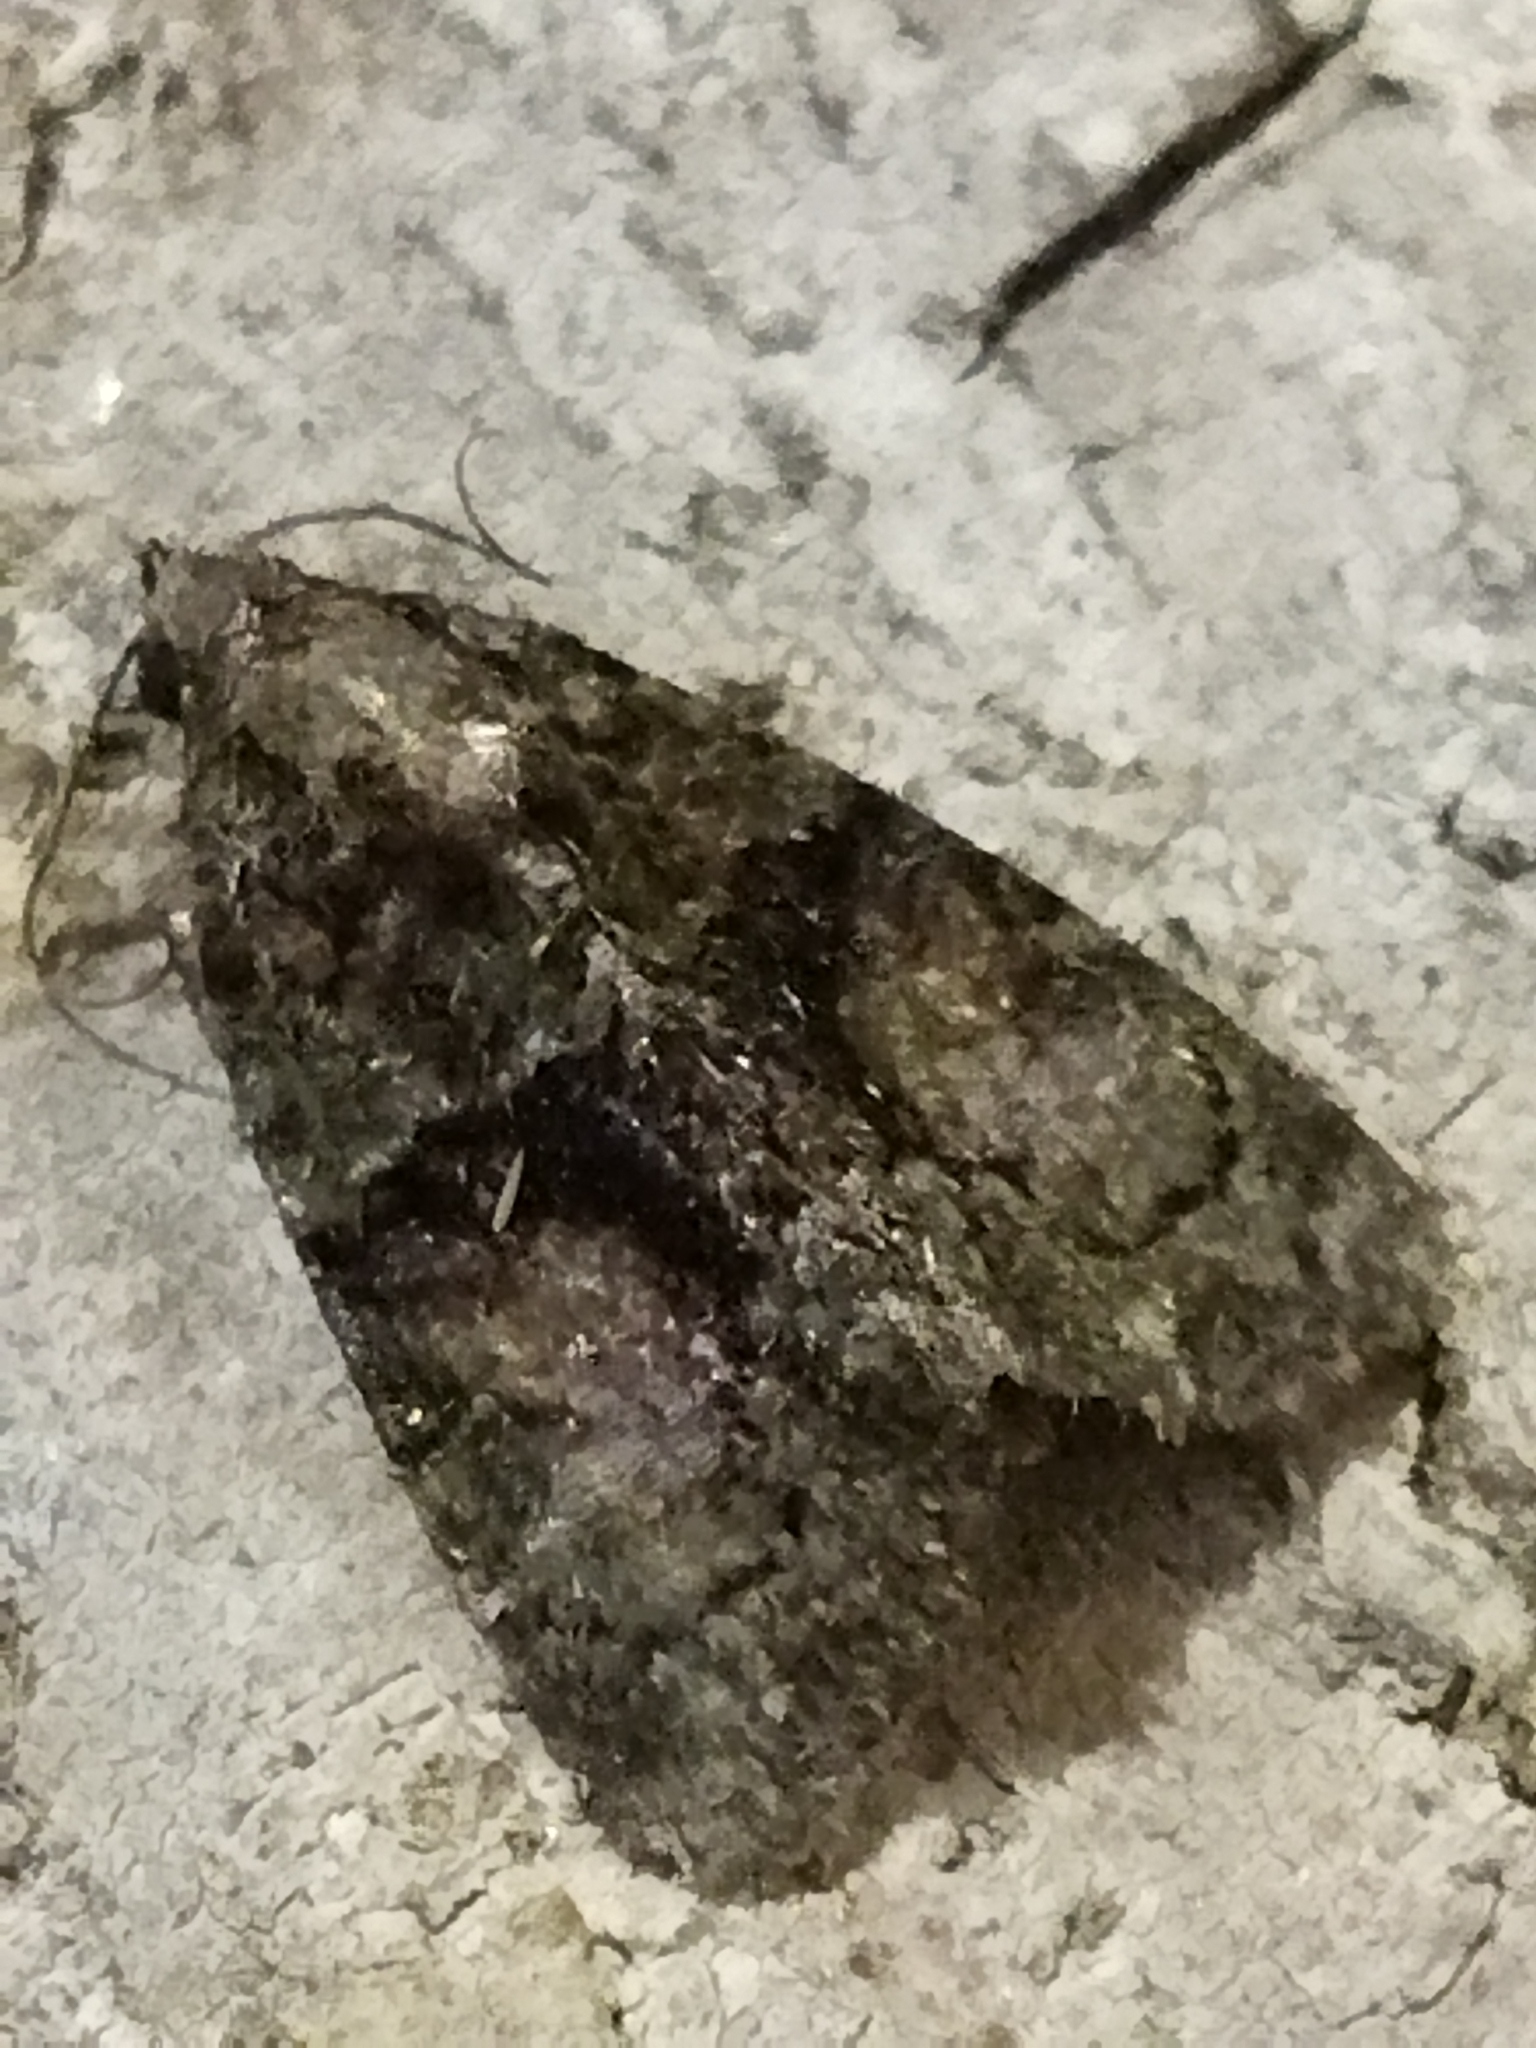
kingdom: Animalia
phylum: Arthropoda
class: Insecta
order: Lepidoptera
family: Noctuidae
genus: Cryphia
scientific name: Cryphia
